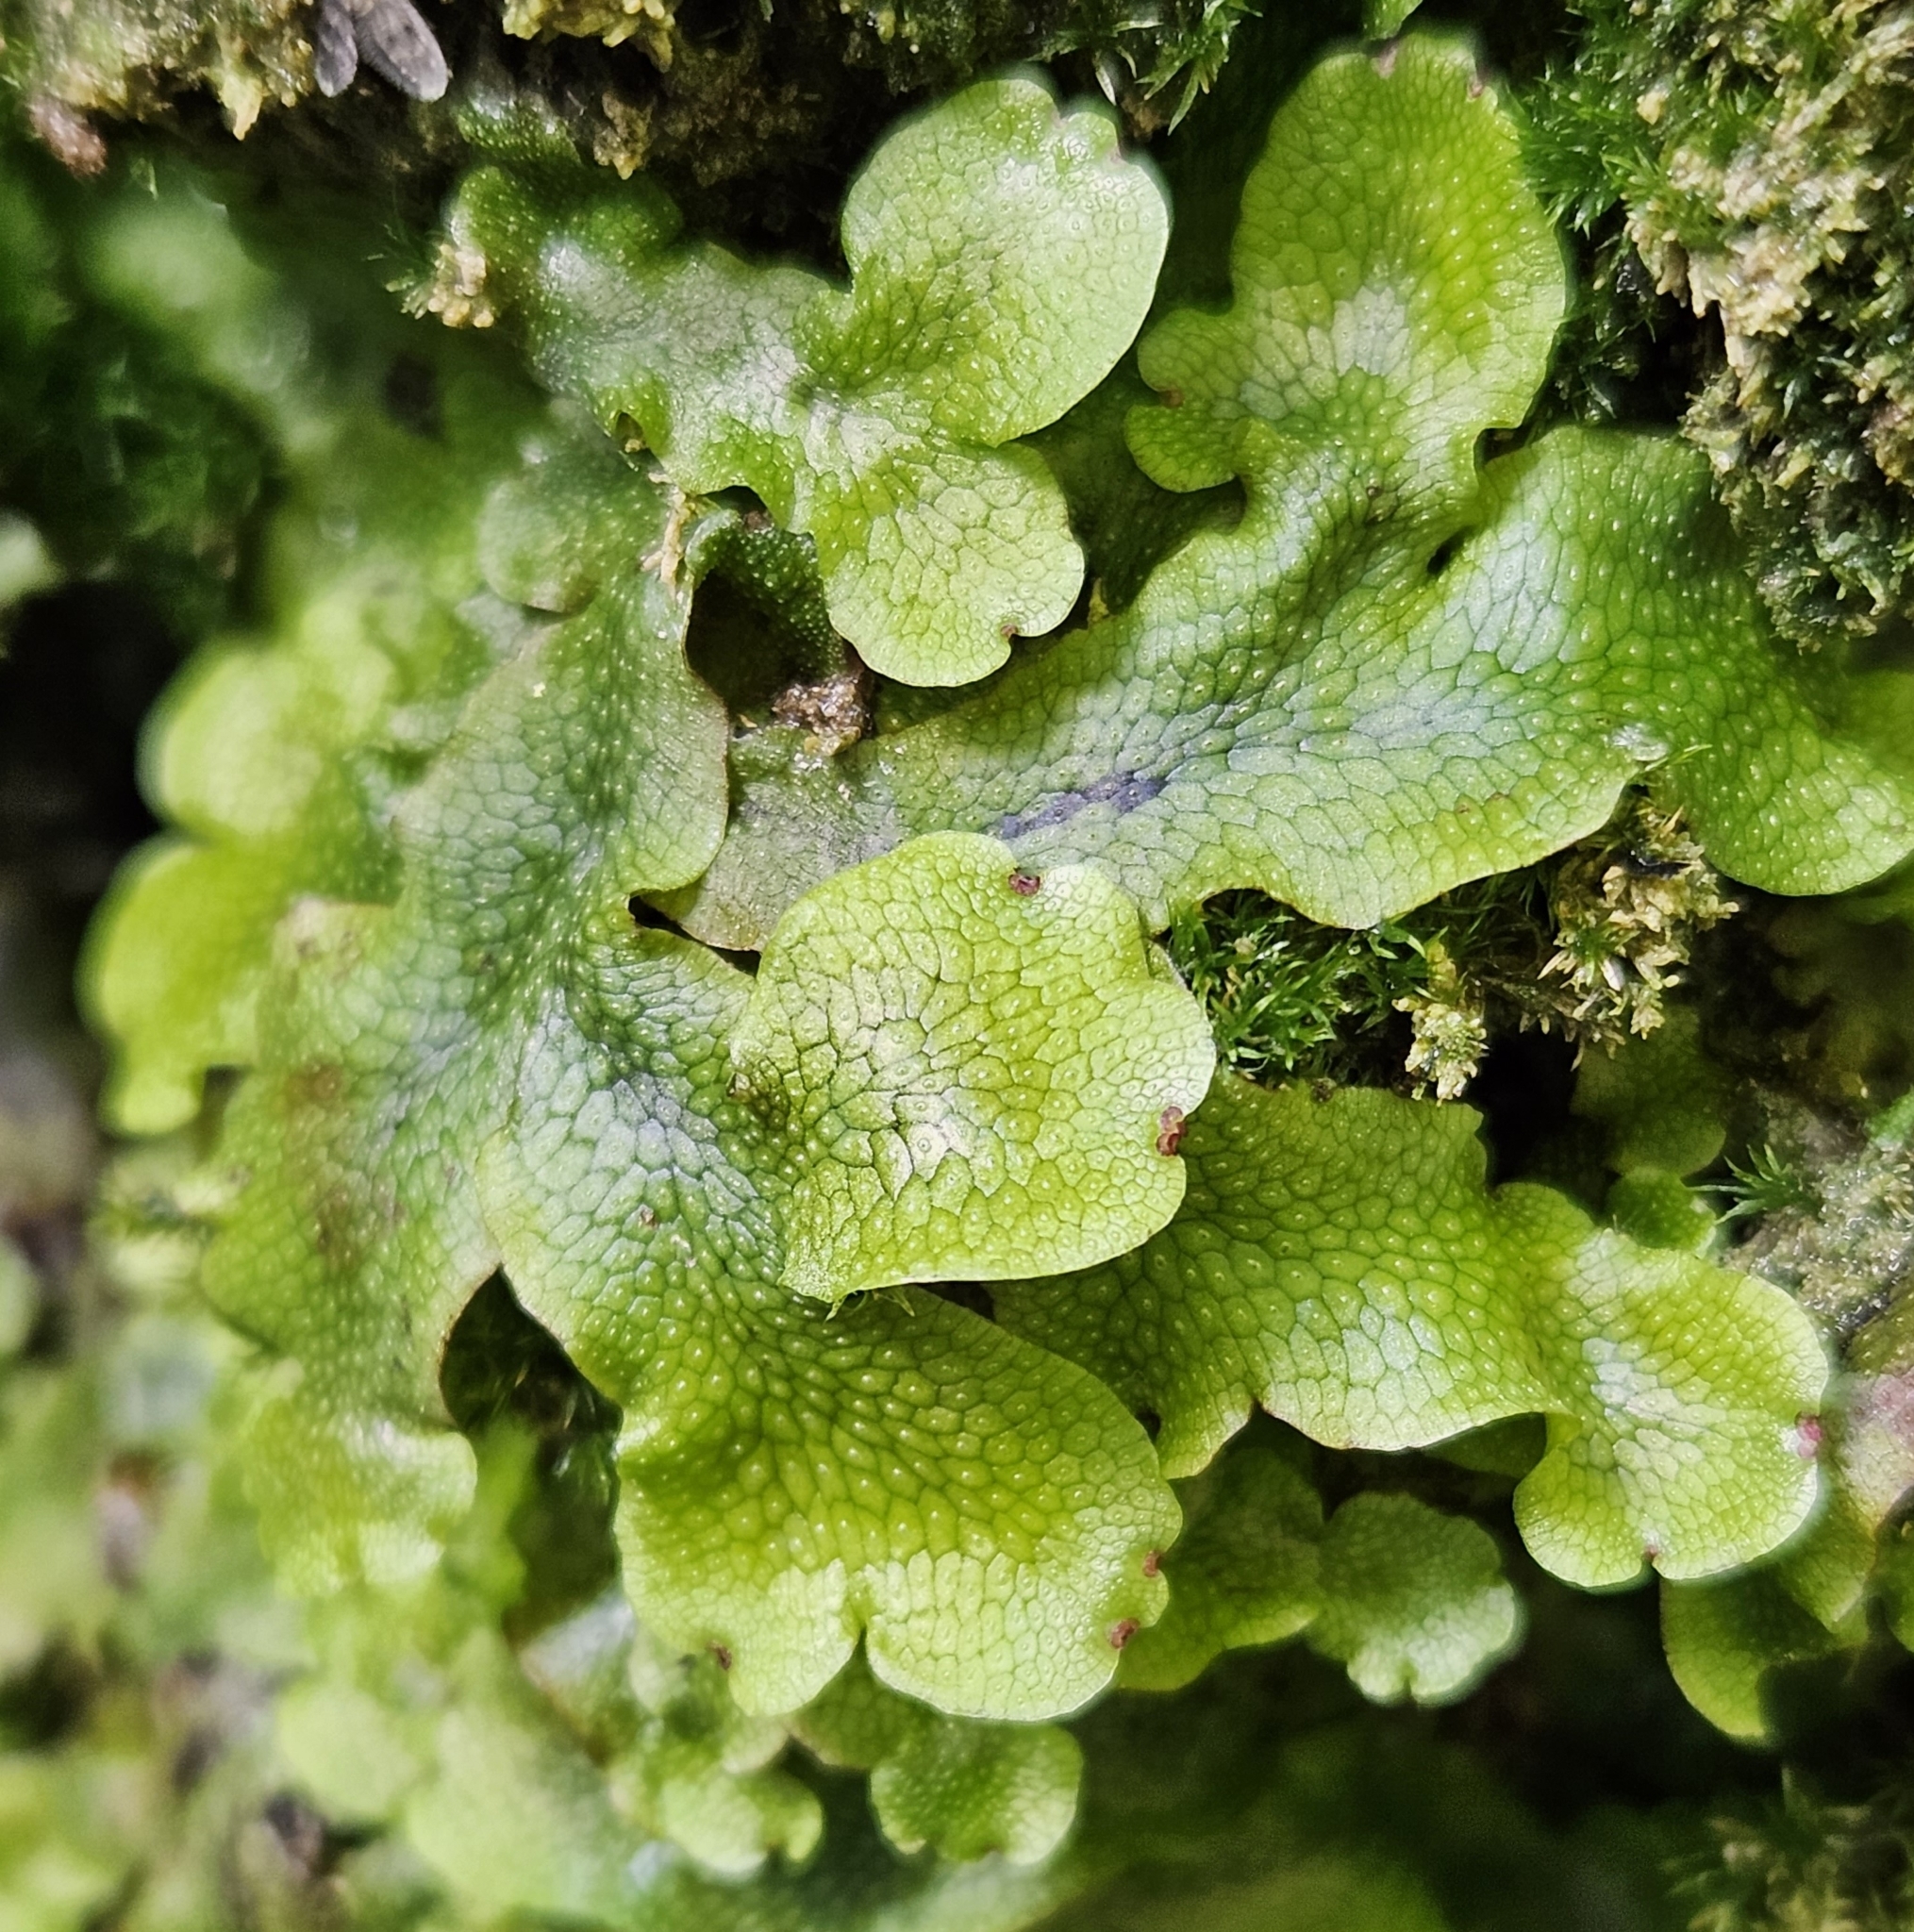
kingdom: Plantae
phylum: Marchantiophyta
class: Marchantiopsida
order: Marchantiales
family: Conocephalaceae
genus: Conocephalum
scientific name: Conocephalum salebrosum
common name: Cat-tongue liverwort
